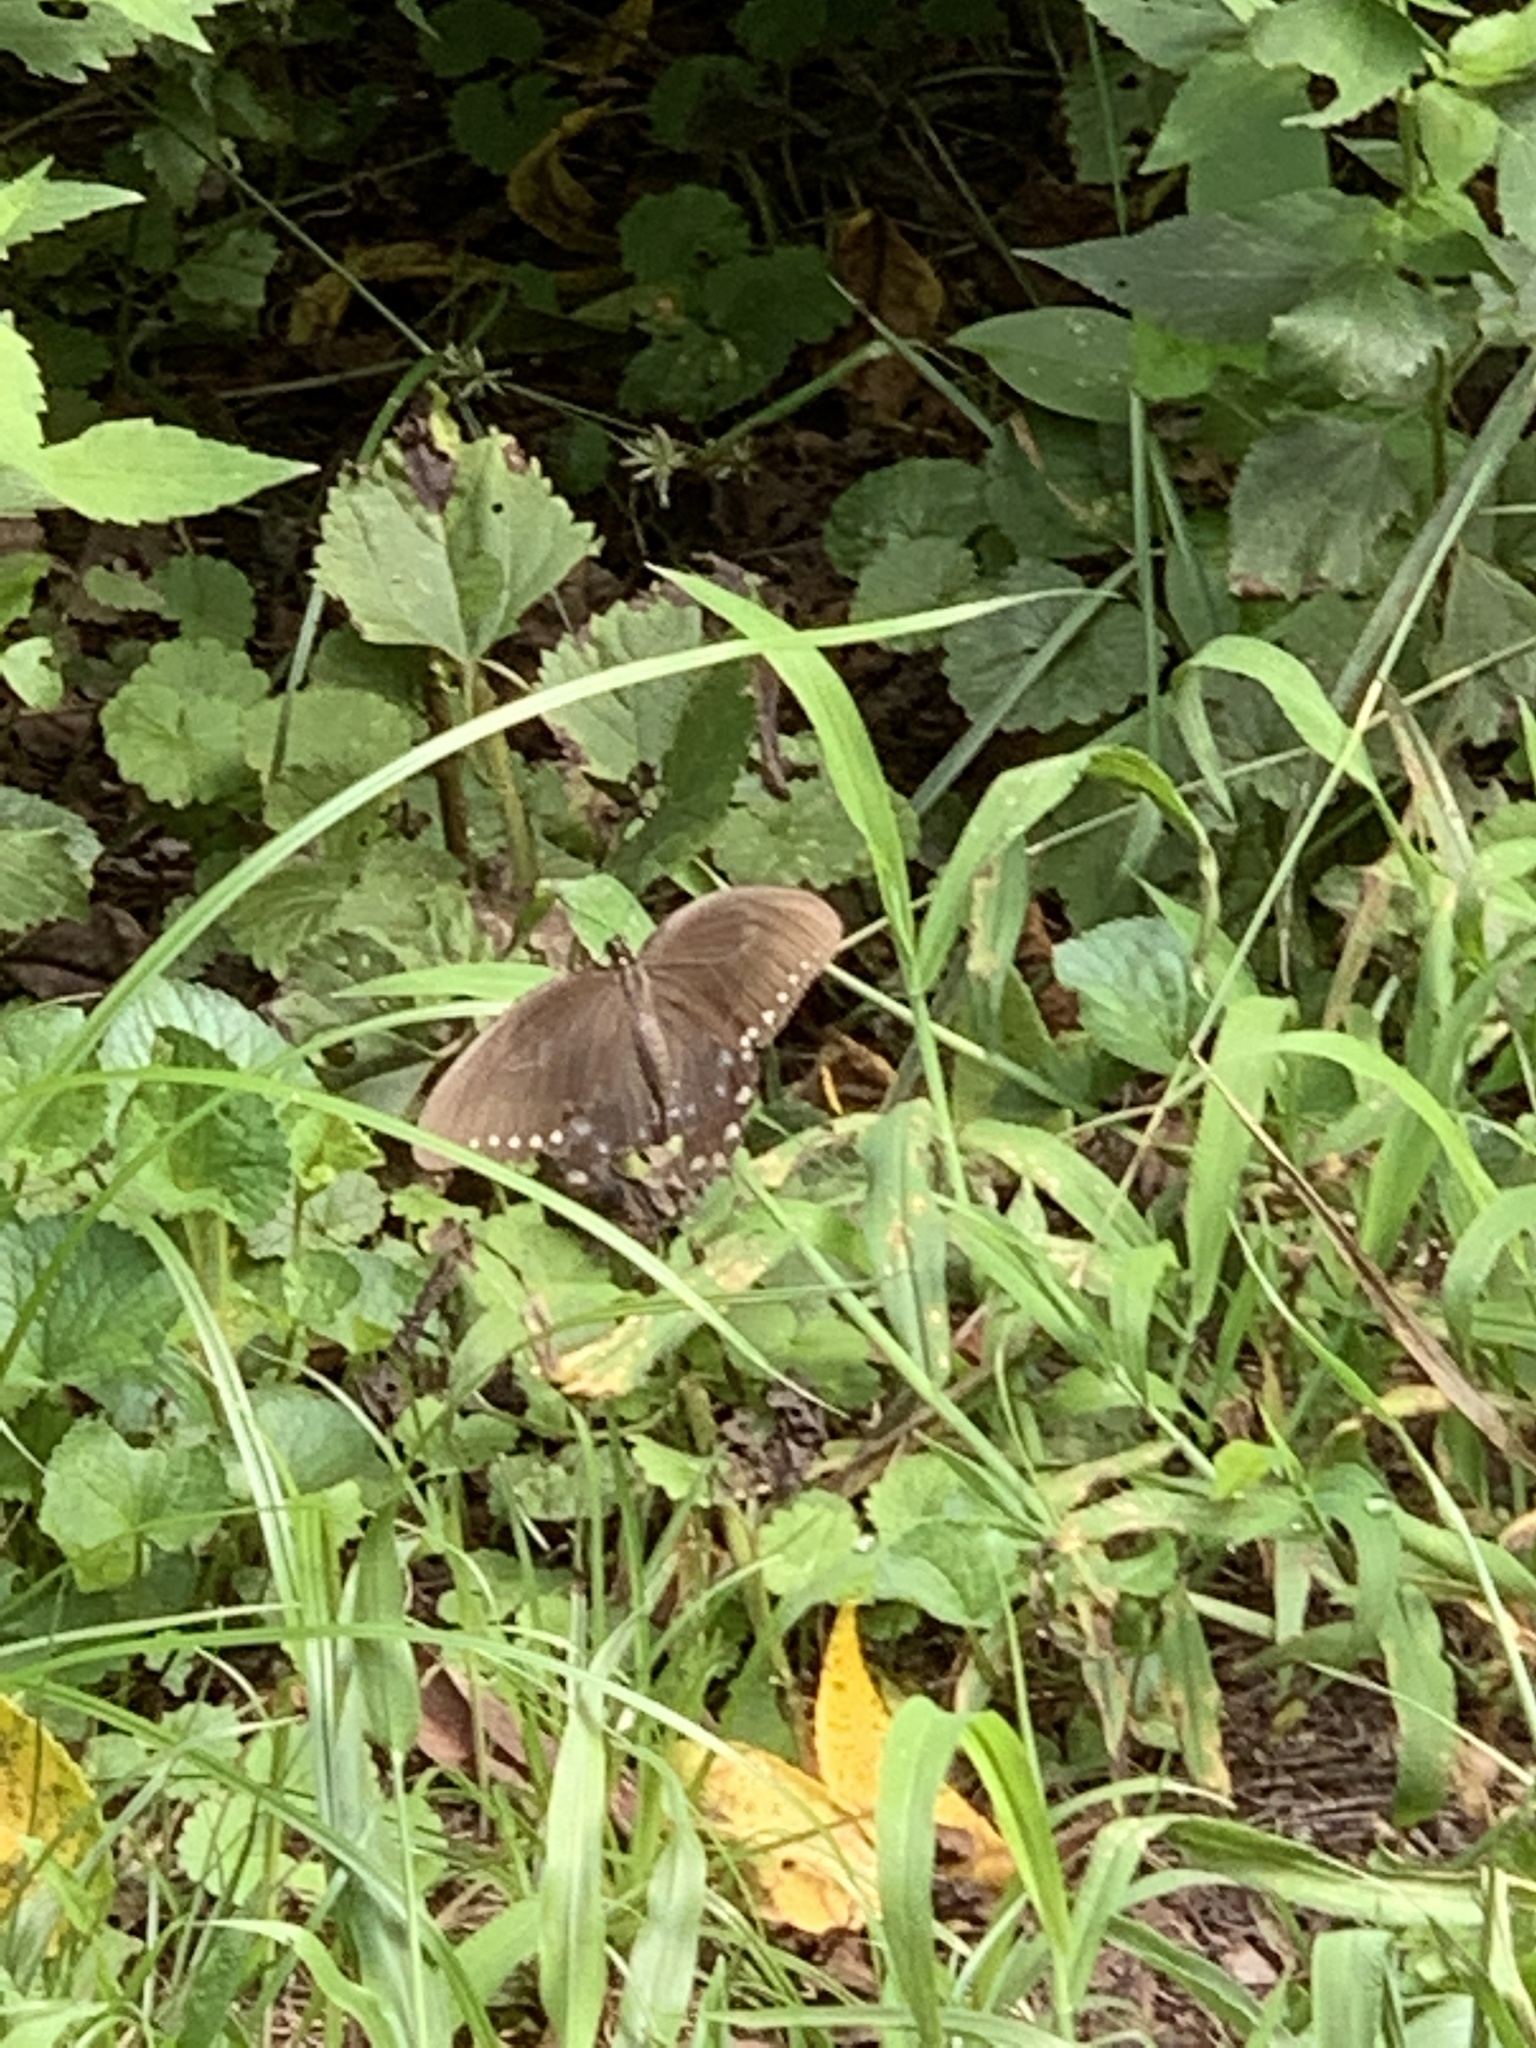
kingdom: Animalia
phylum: Arthropoda
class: Insecta
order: Lepidoptera
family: Papilionidae
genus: Papilio
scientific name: Papilio troilus
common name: Spicebush swallowtail
